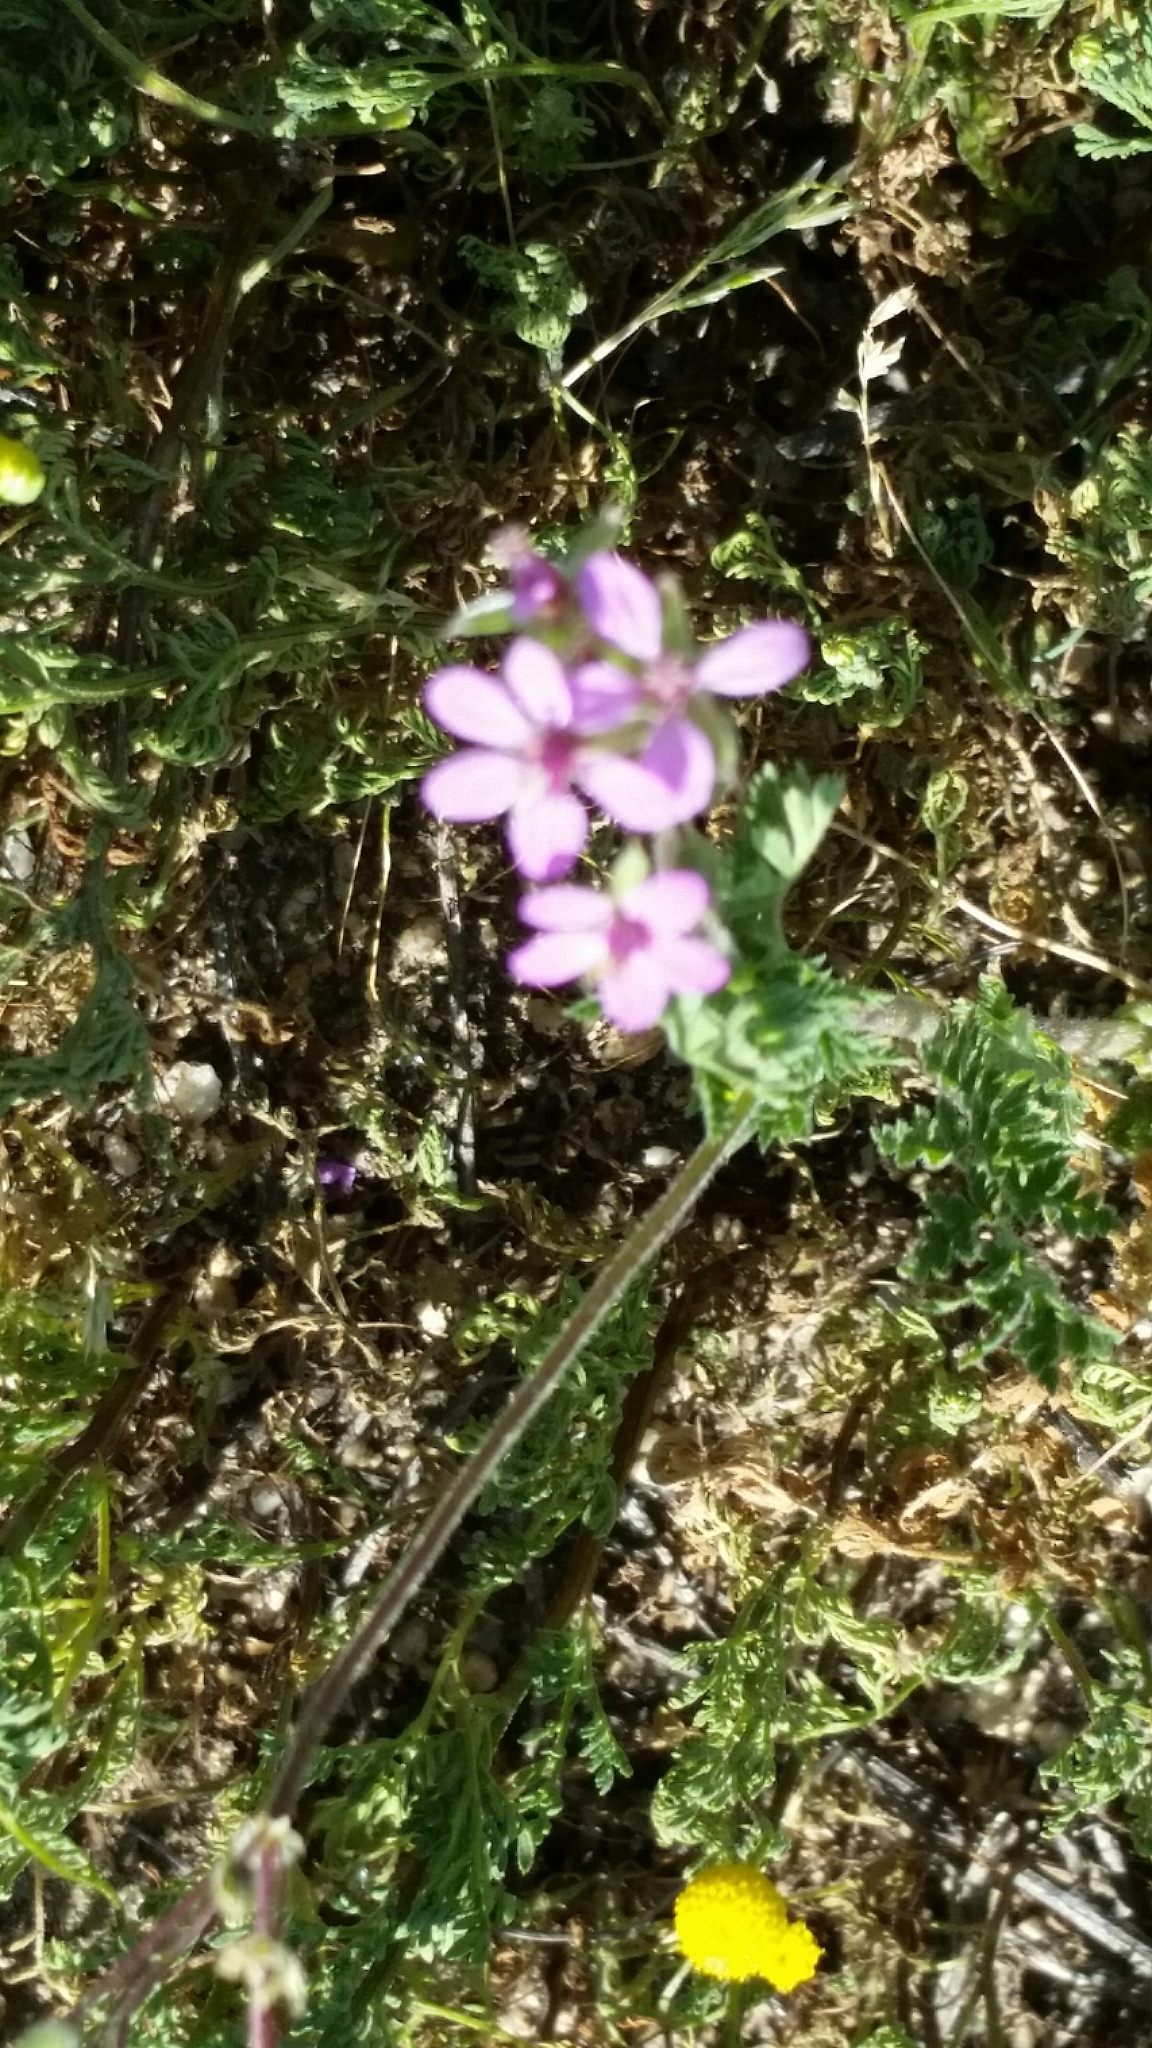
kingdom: Plantae
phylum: Tracheophyta
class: Magnoliopsida
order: Geraniales
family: Geraniaceae
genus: Erodium
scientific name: Erodium cicutarium
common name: Common stork's-bill
